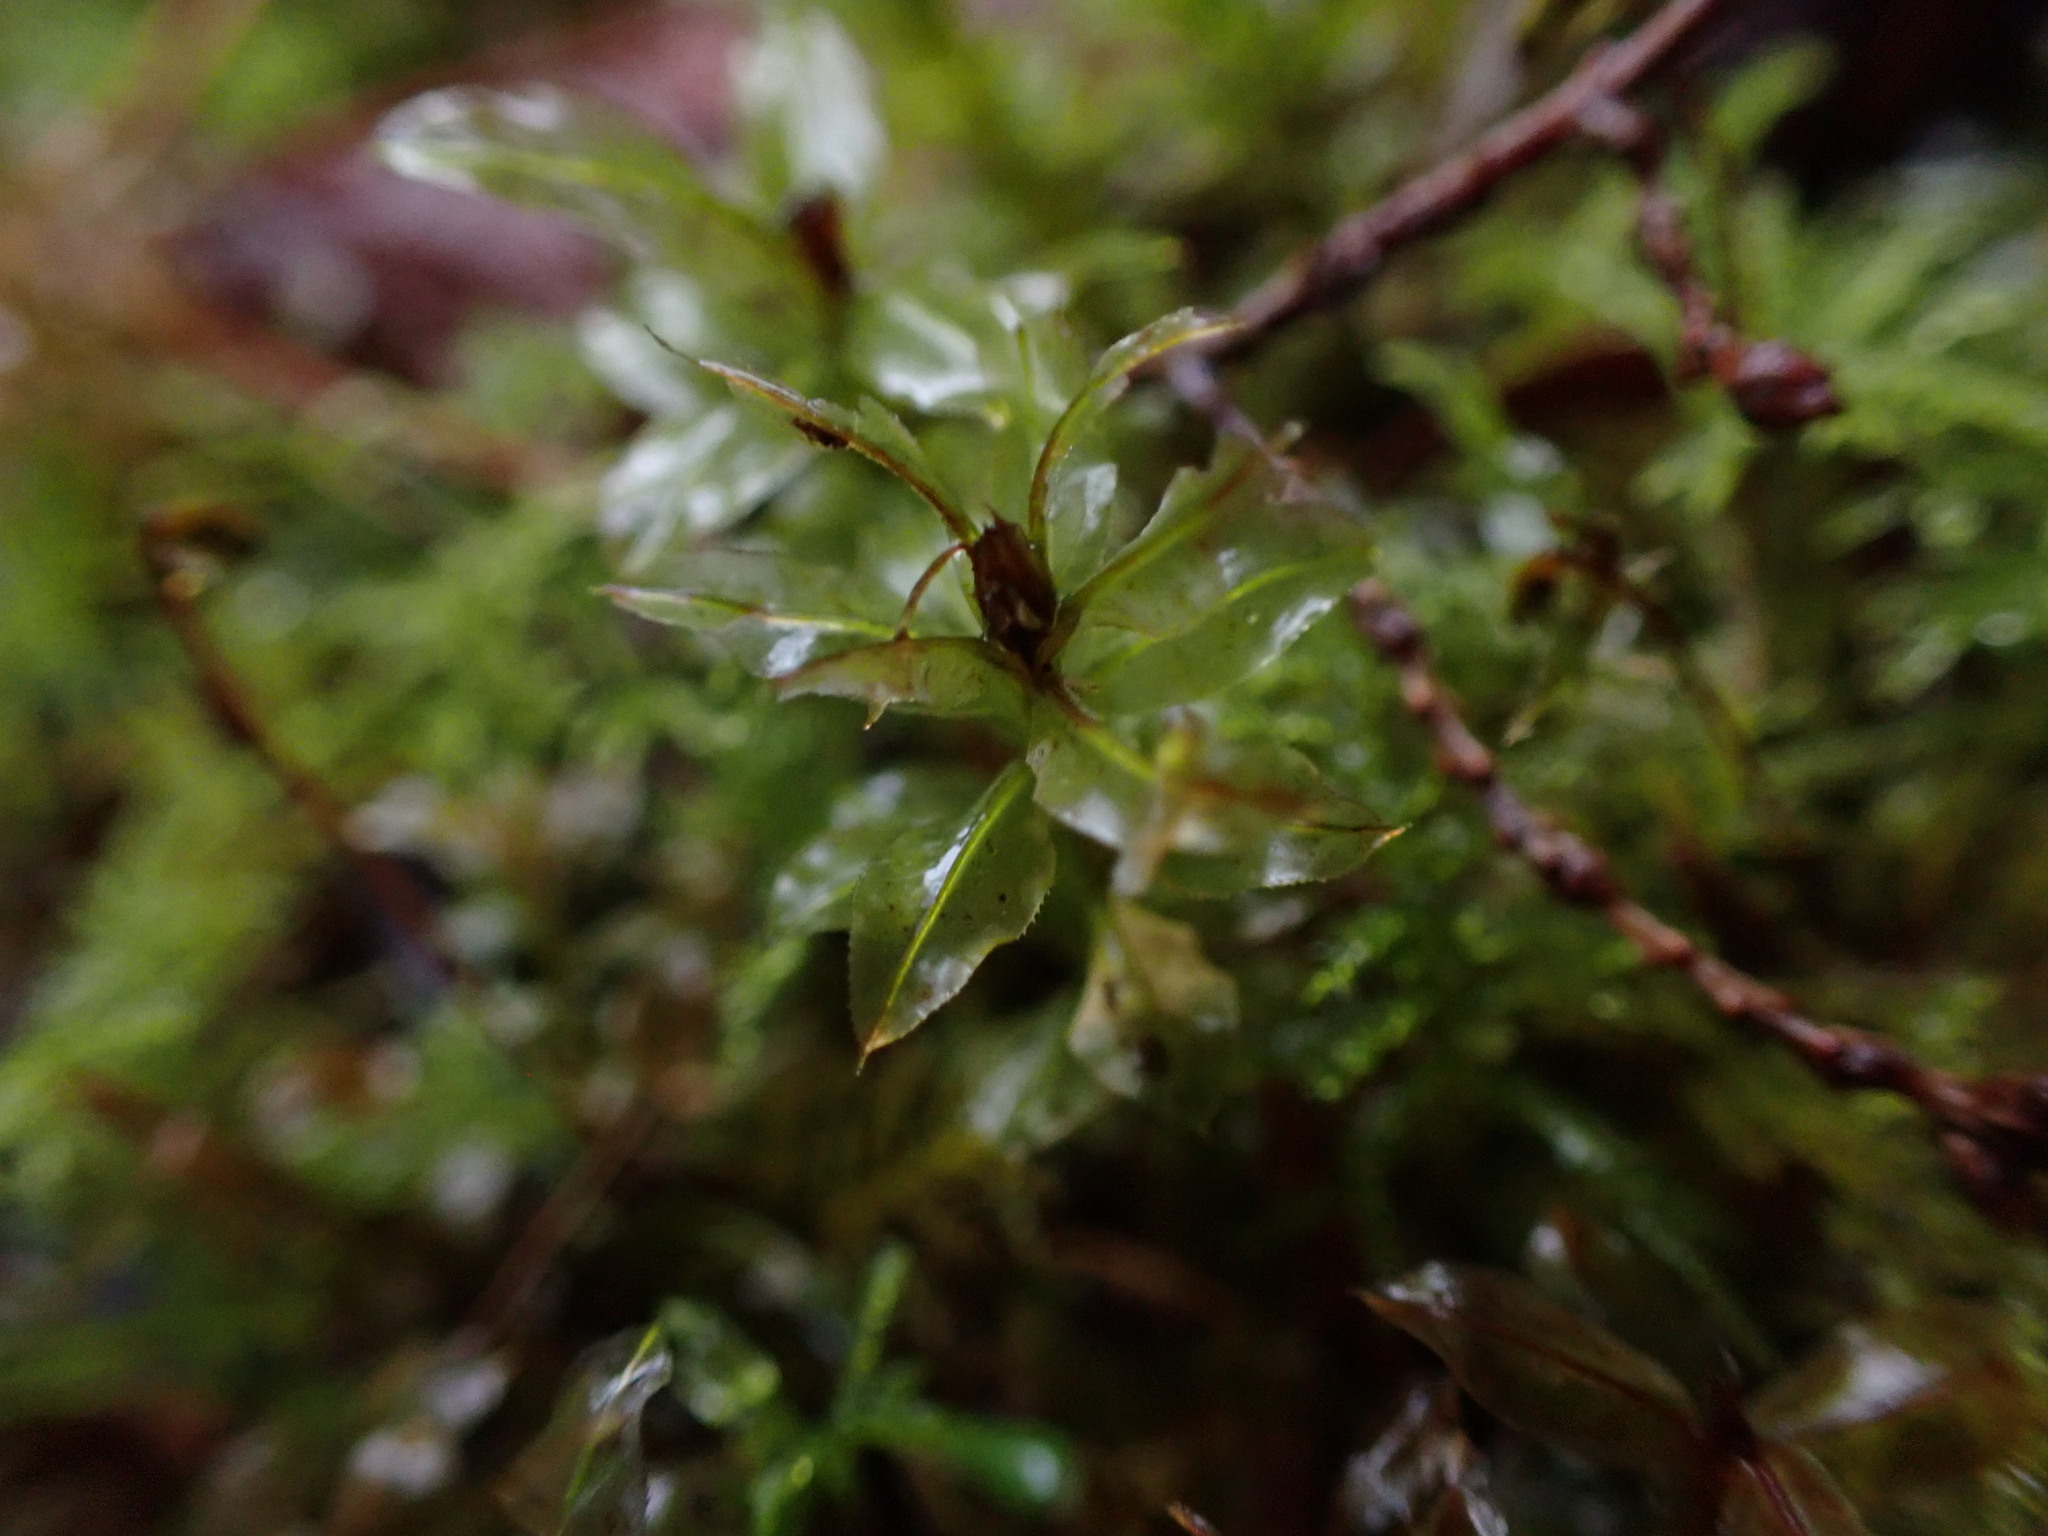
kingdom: Plantae
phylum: Bryophyta
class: Bryopsida
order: Bryales
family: Mniaceae
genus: Plagiomnium
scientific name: Plagiomnium insigne
